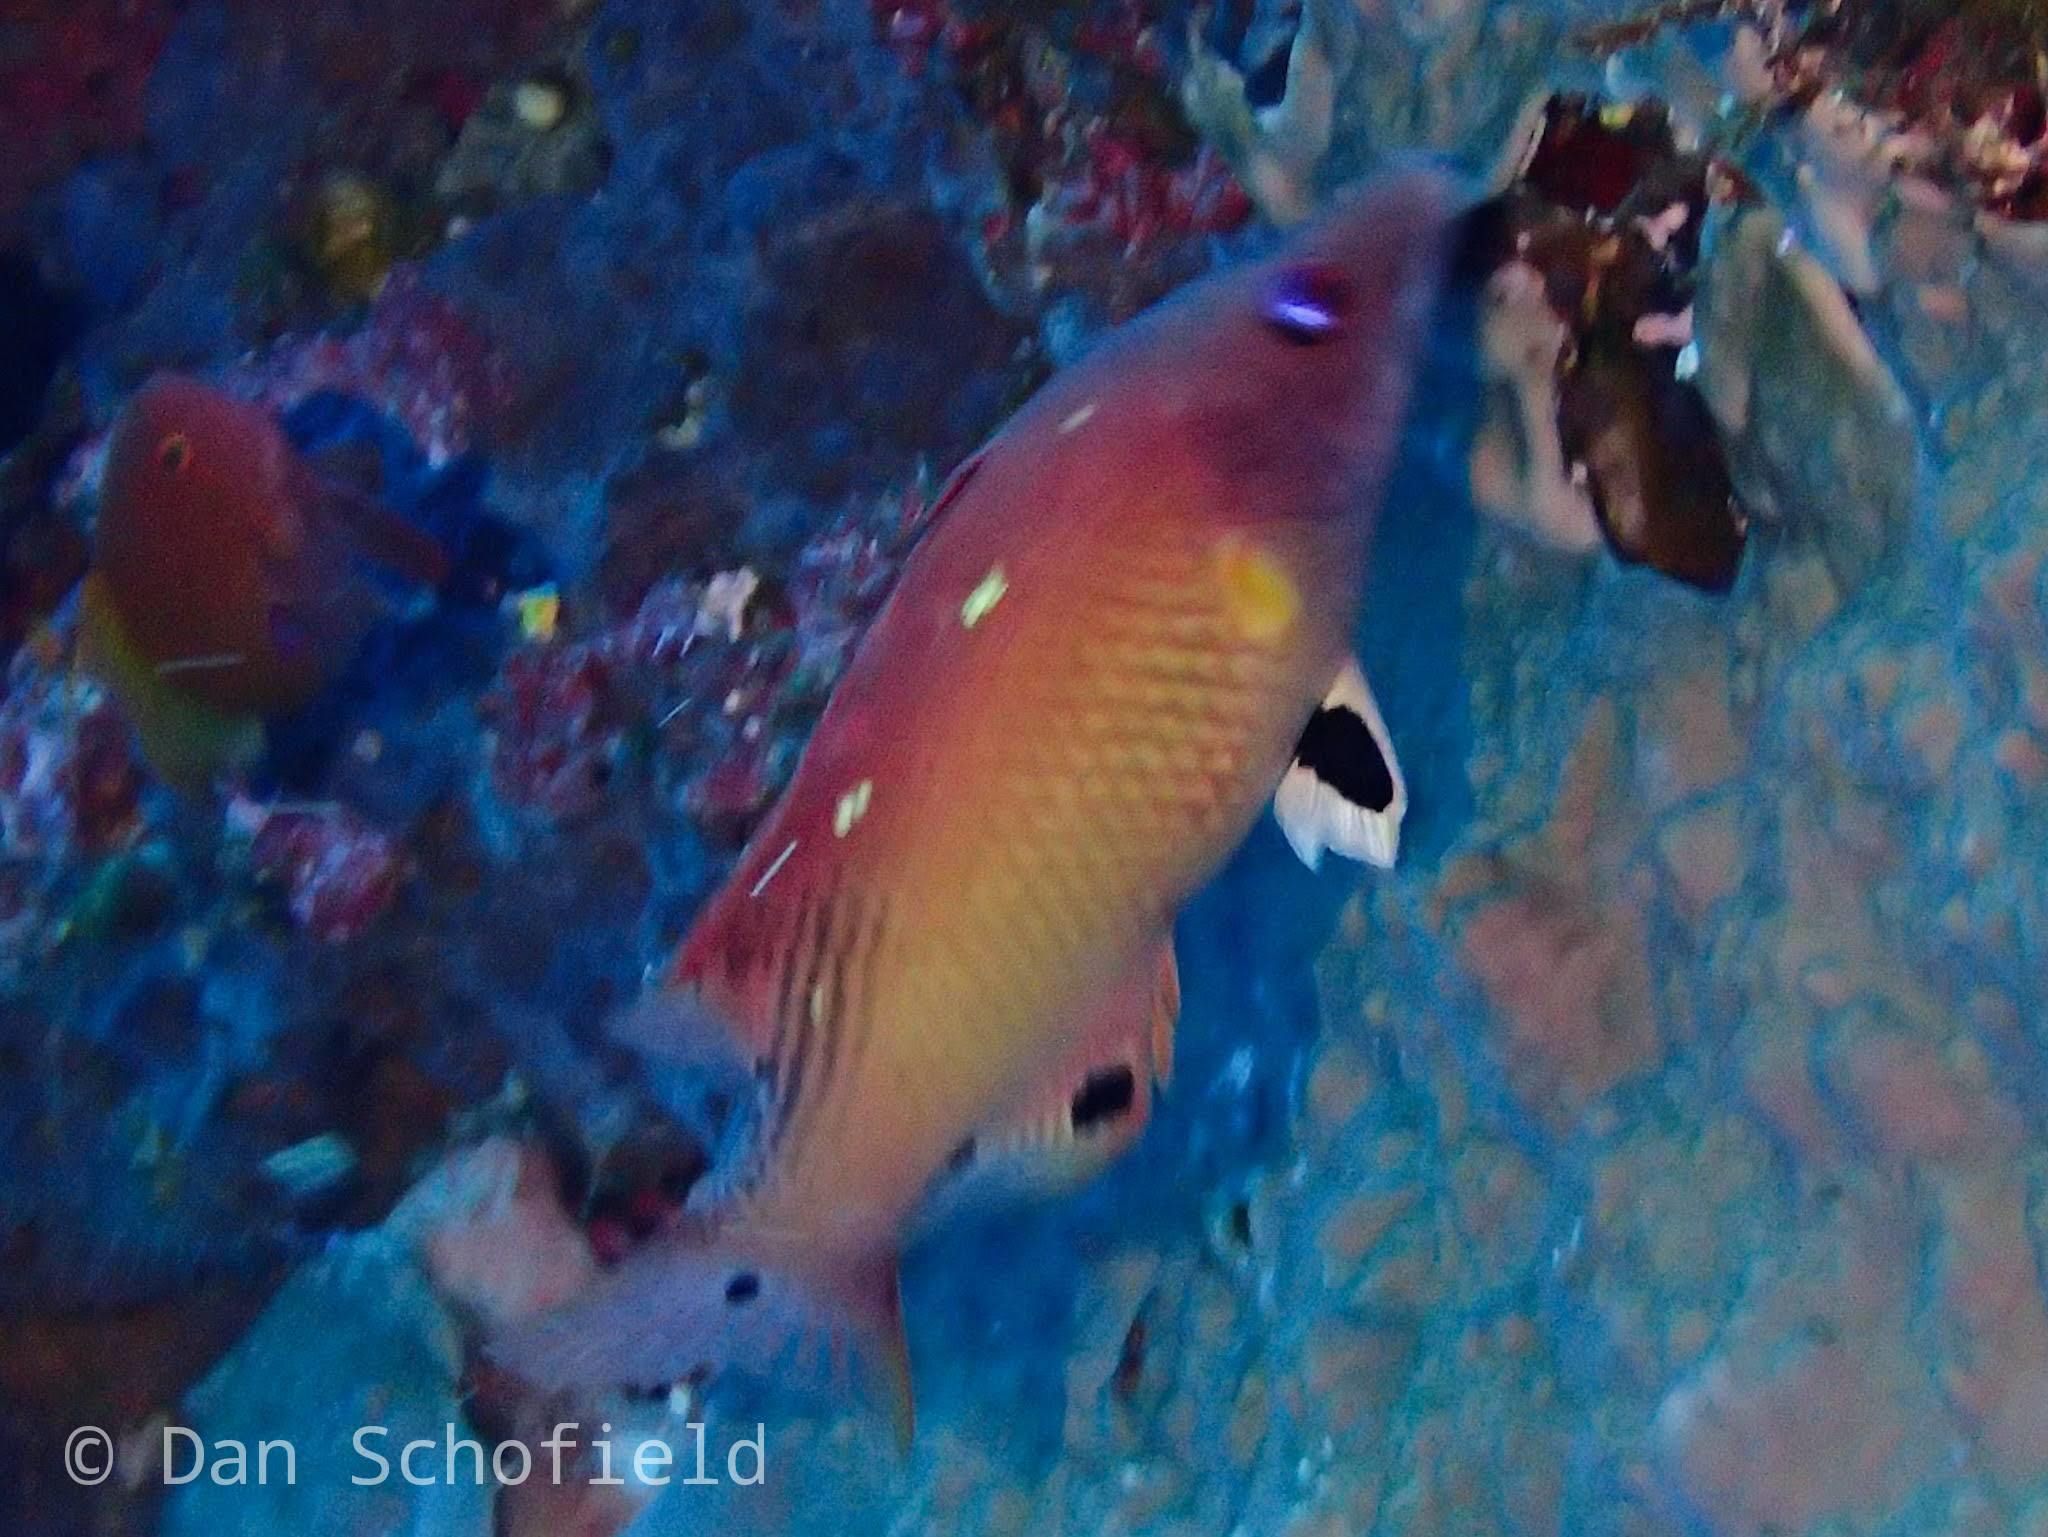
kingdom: Animalia
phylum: Chordata
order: Perciformes
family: Labridae
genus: Bodianus
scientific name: Bodianus dictynna
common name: Diana's hogfish
